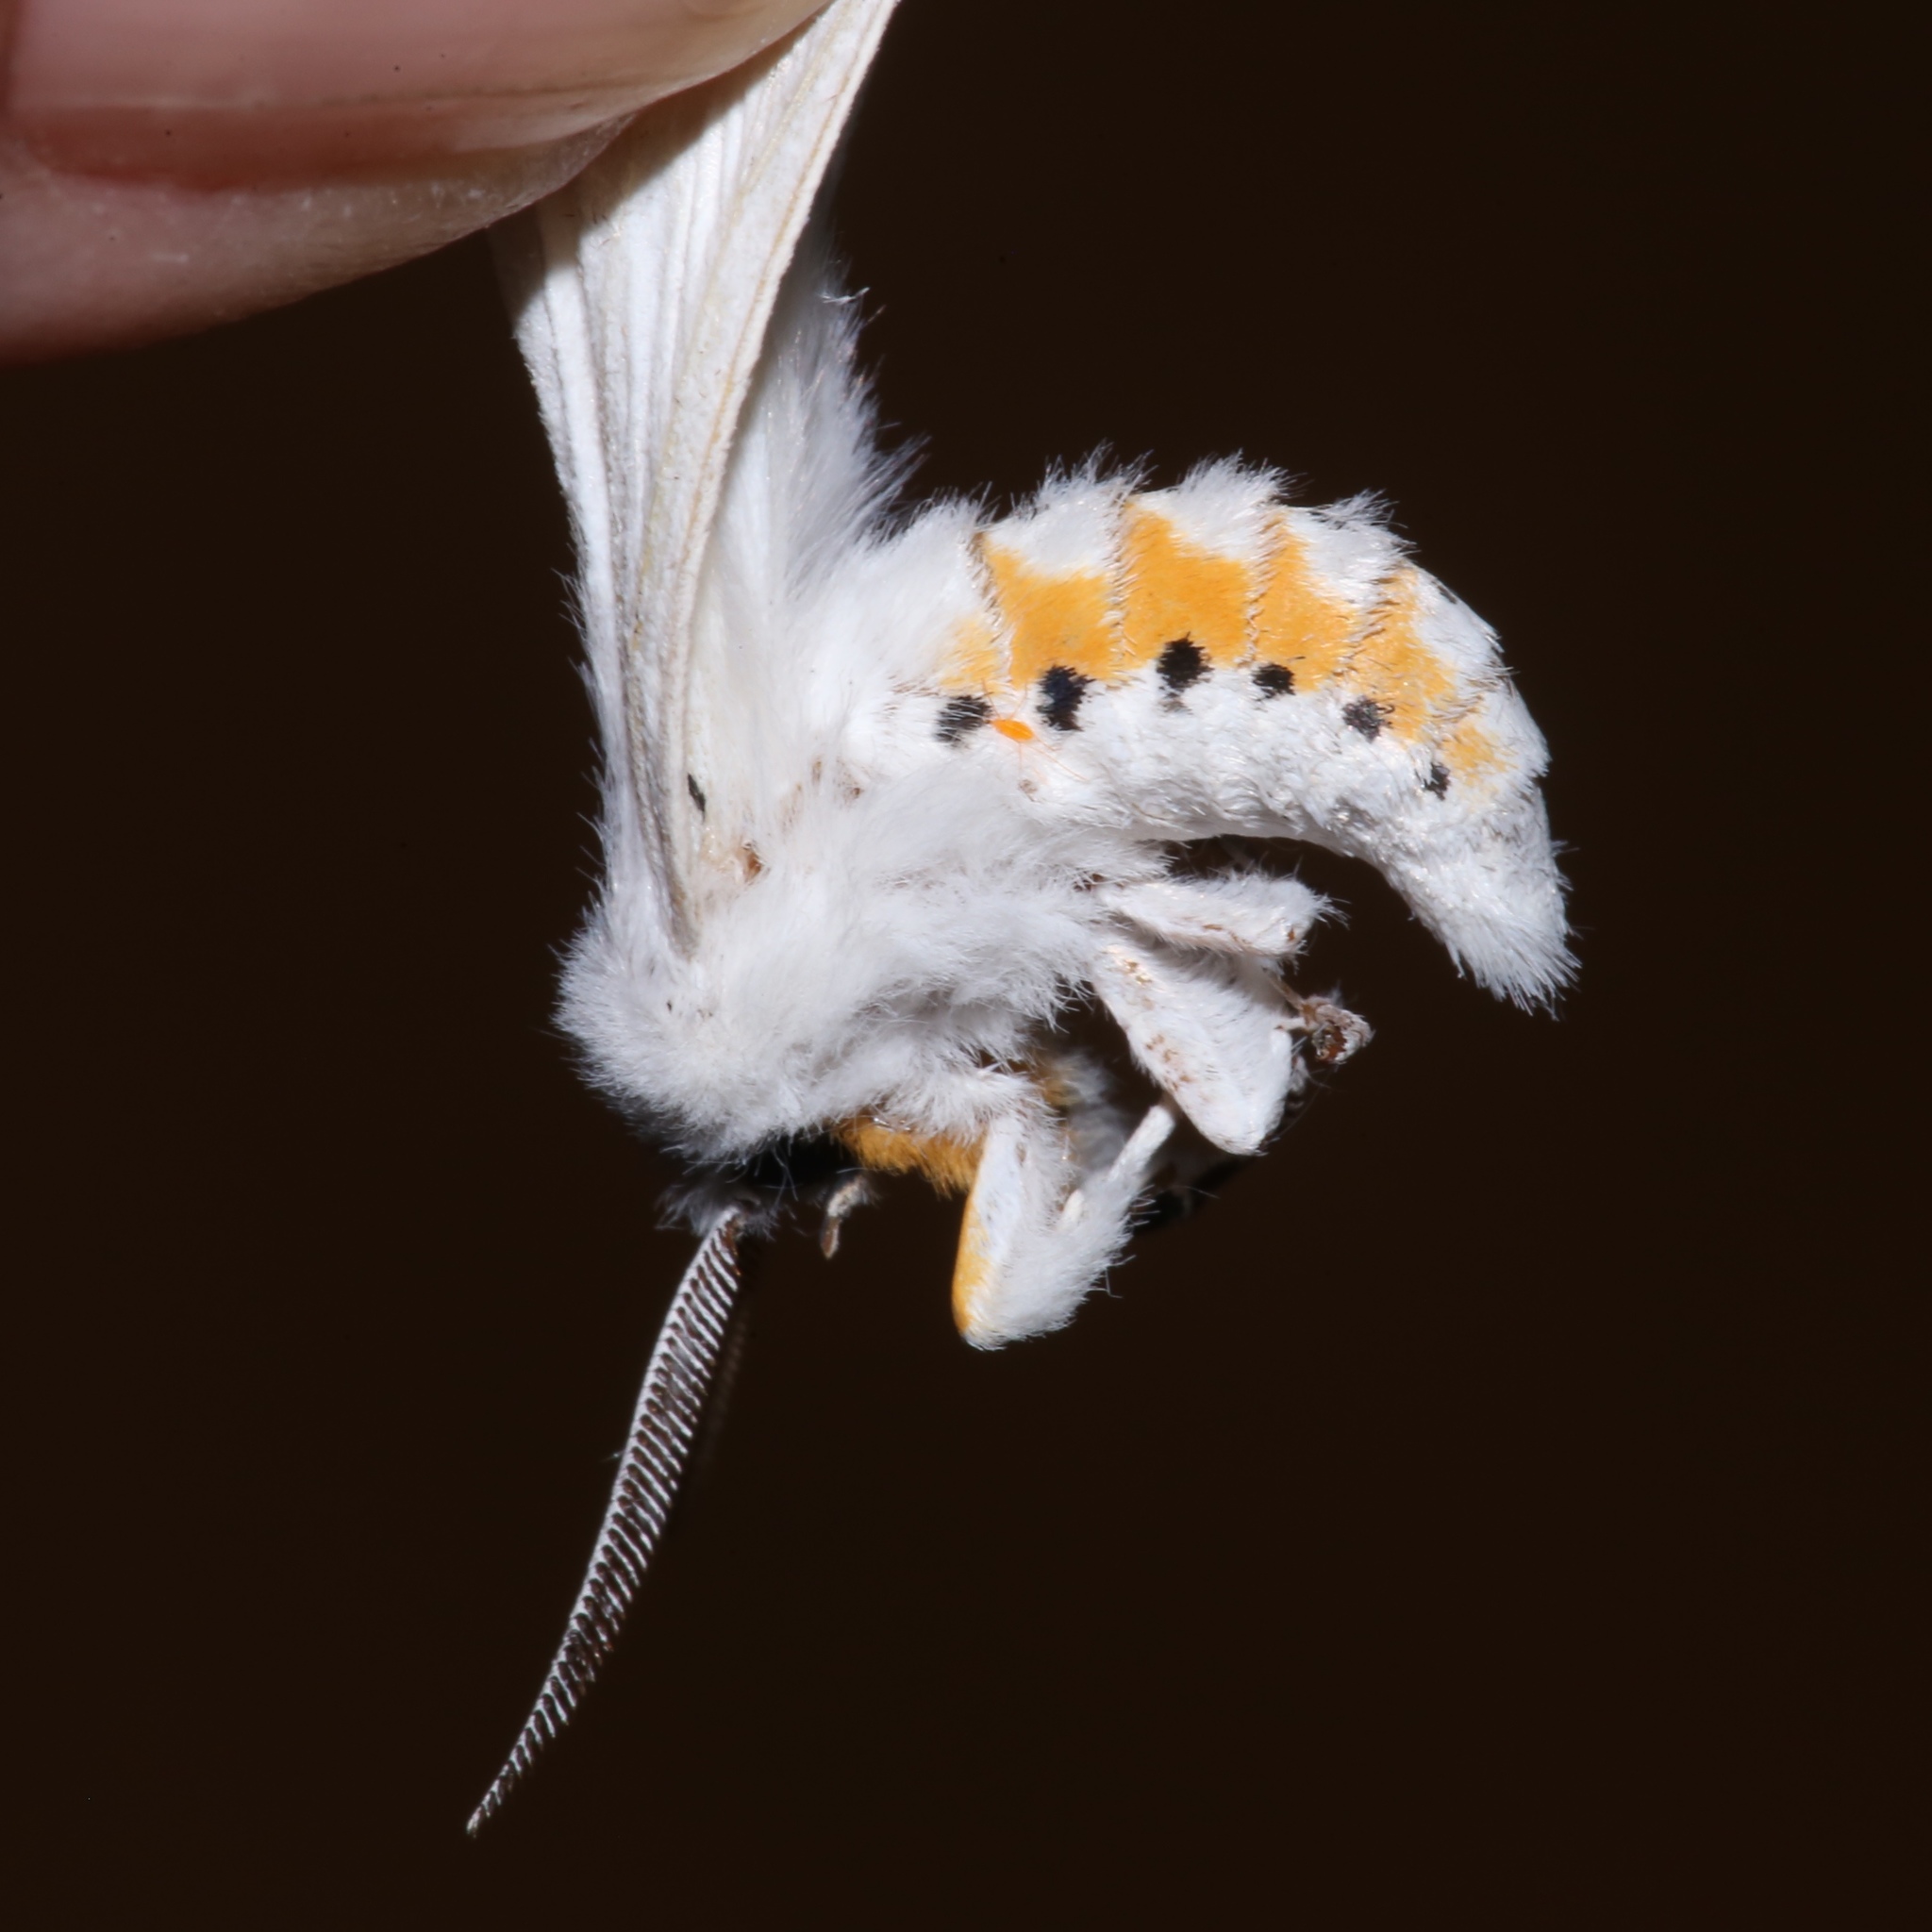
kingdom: Animalia
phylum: Arthropoda
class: Insecta
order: Lepidoptera
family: Erebidae
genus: Spilosoma
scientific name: Spilosoma virginica
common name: Virginia tiger moth
